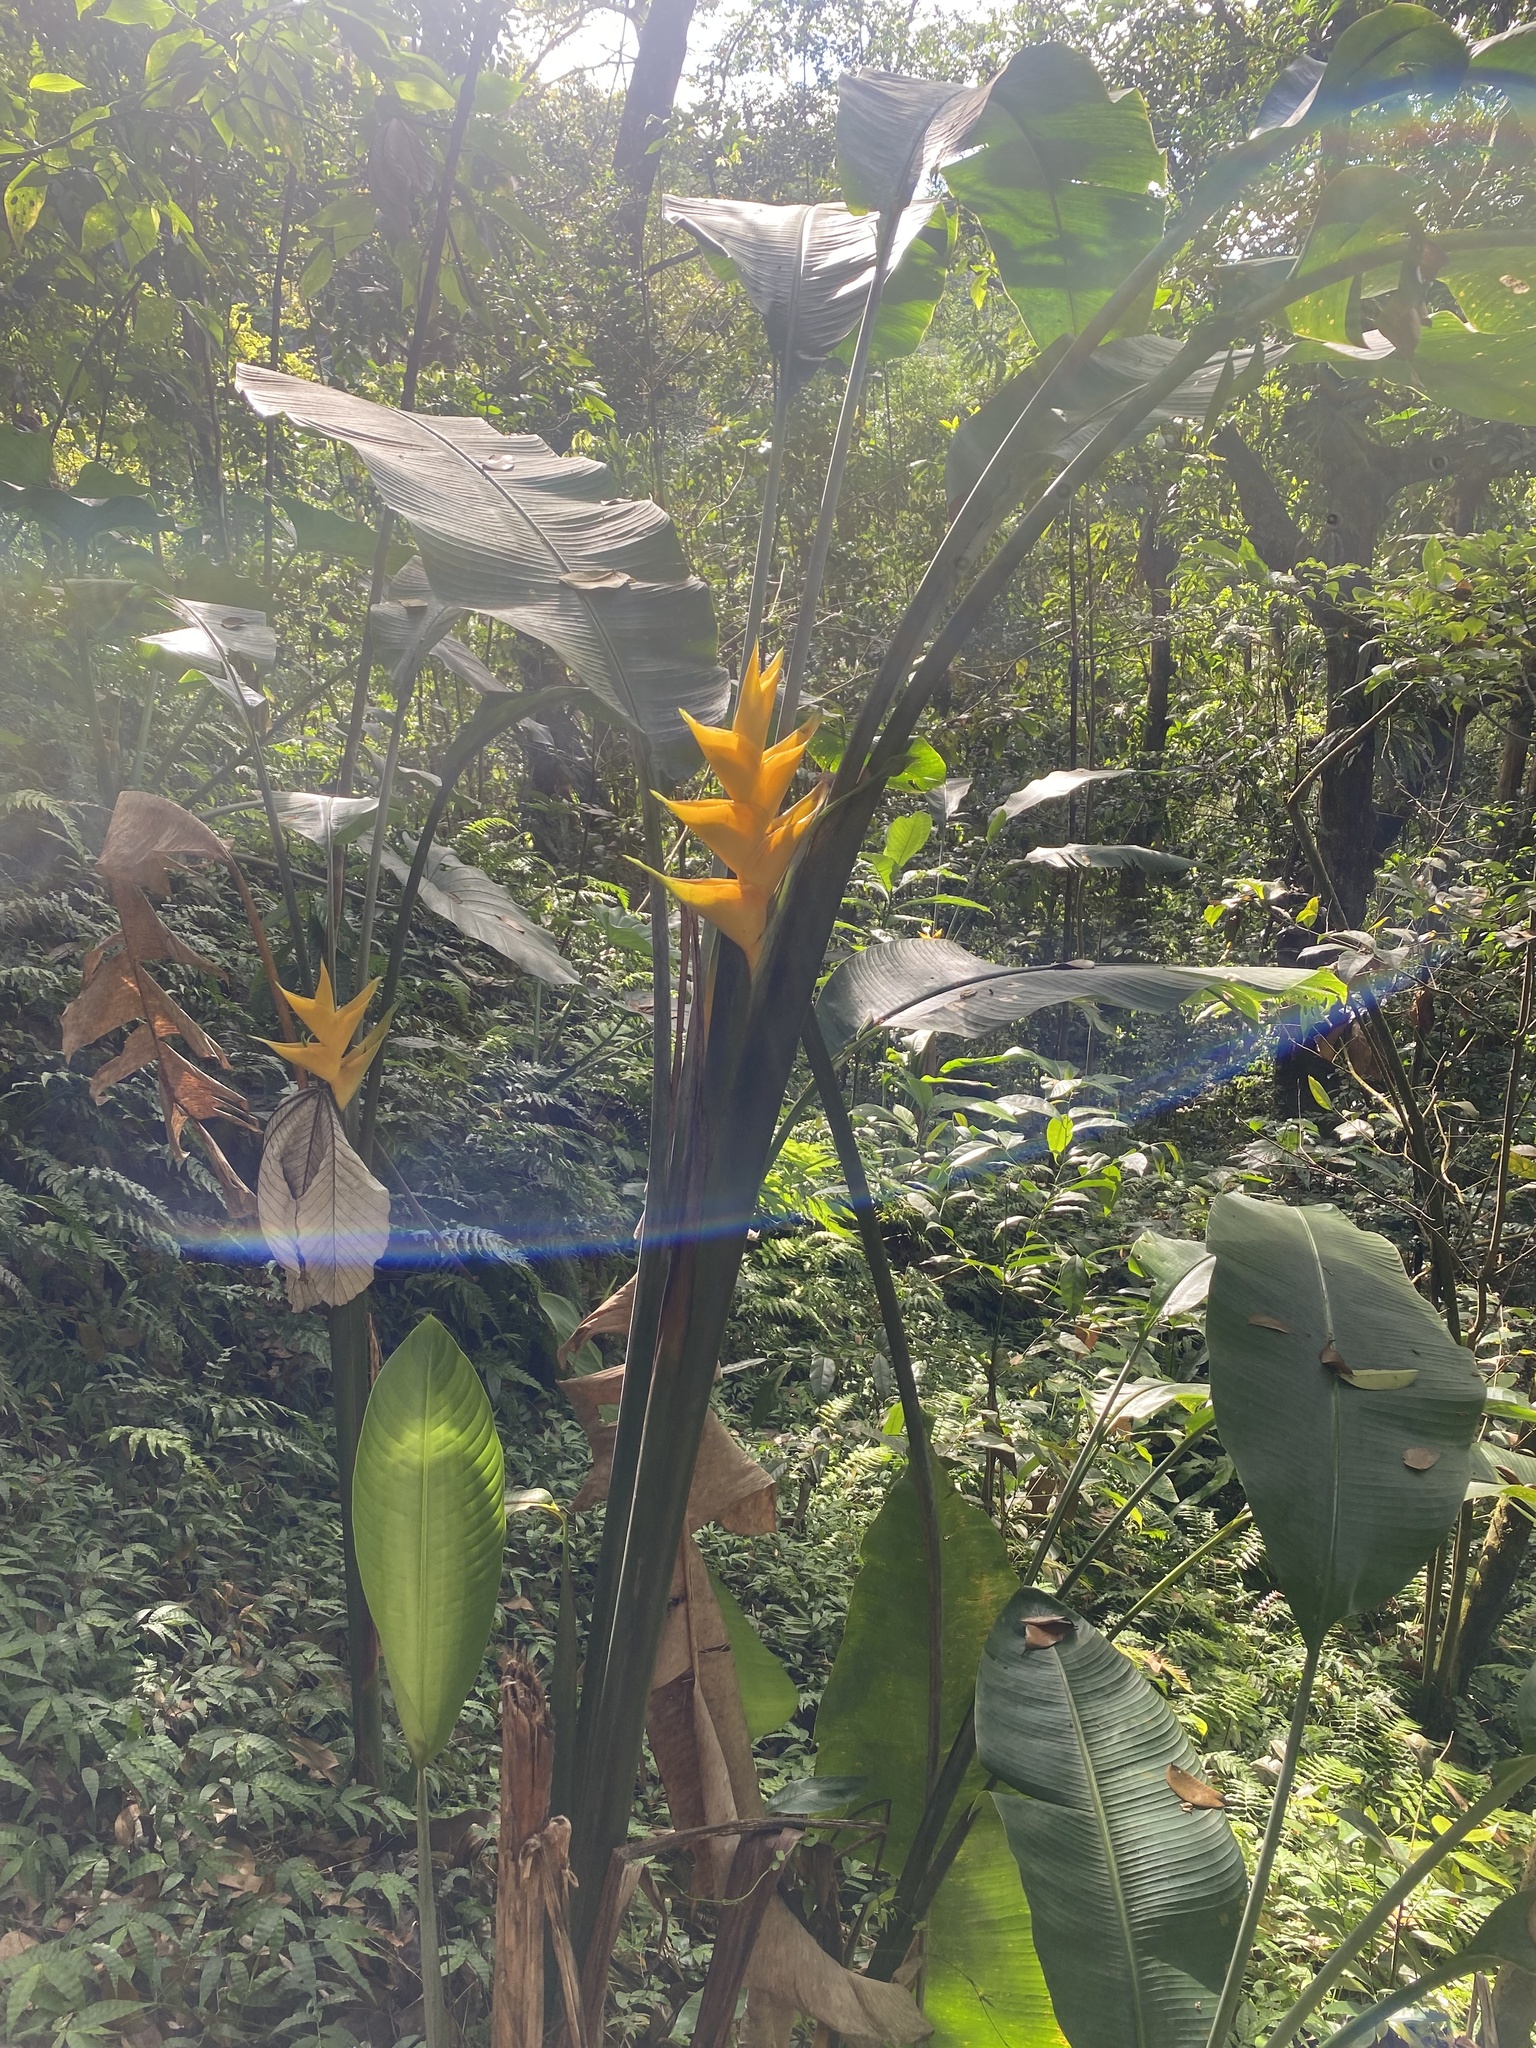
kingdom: Plantae
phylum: Tracheophyta
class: Liliopsida
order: Zingiberales
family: Heliconiaceae
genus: Heliconia
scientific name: Heliconia caribaea
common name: Wild plantain
